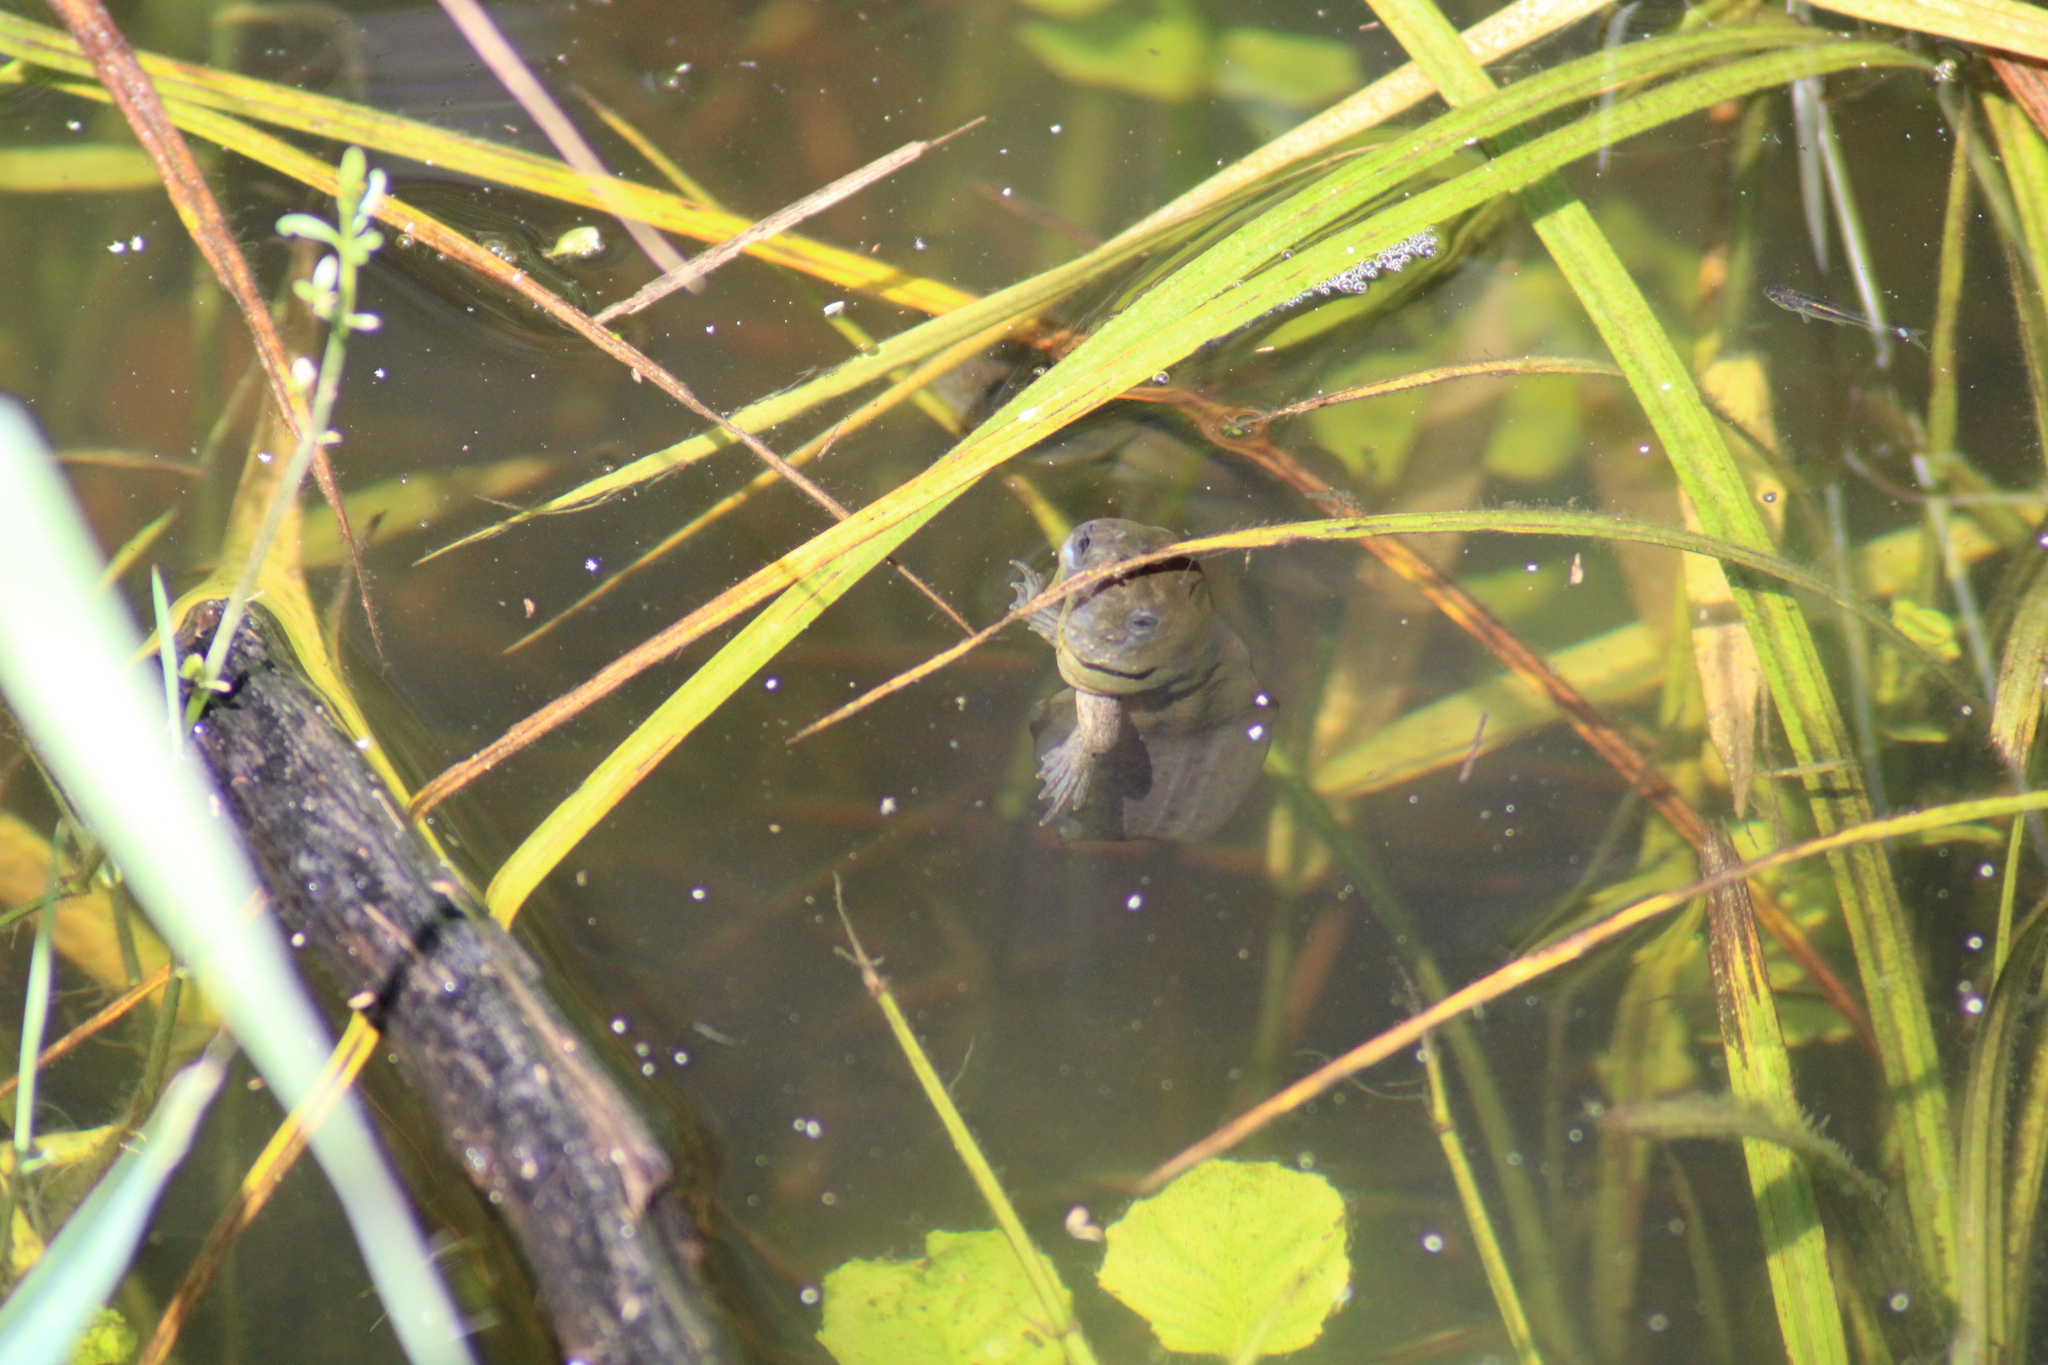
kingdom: Animalia
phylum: Chordata
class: Amphibia
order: Anura
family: Pelobatidae
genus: Pelobates
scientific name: Pelobates fuscus
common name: Common eurasian spadefoot toad
